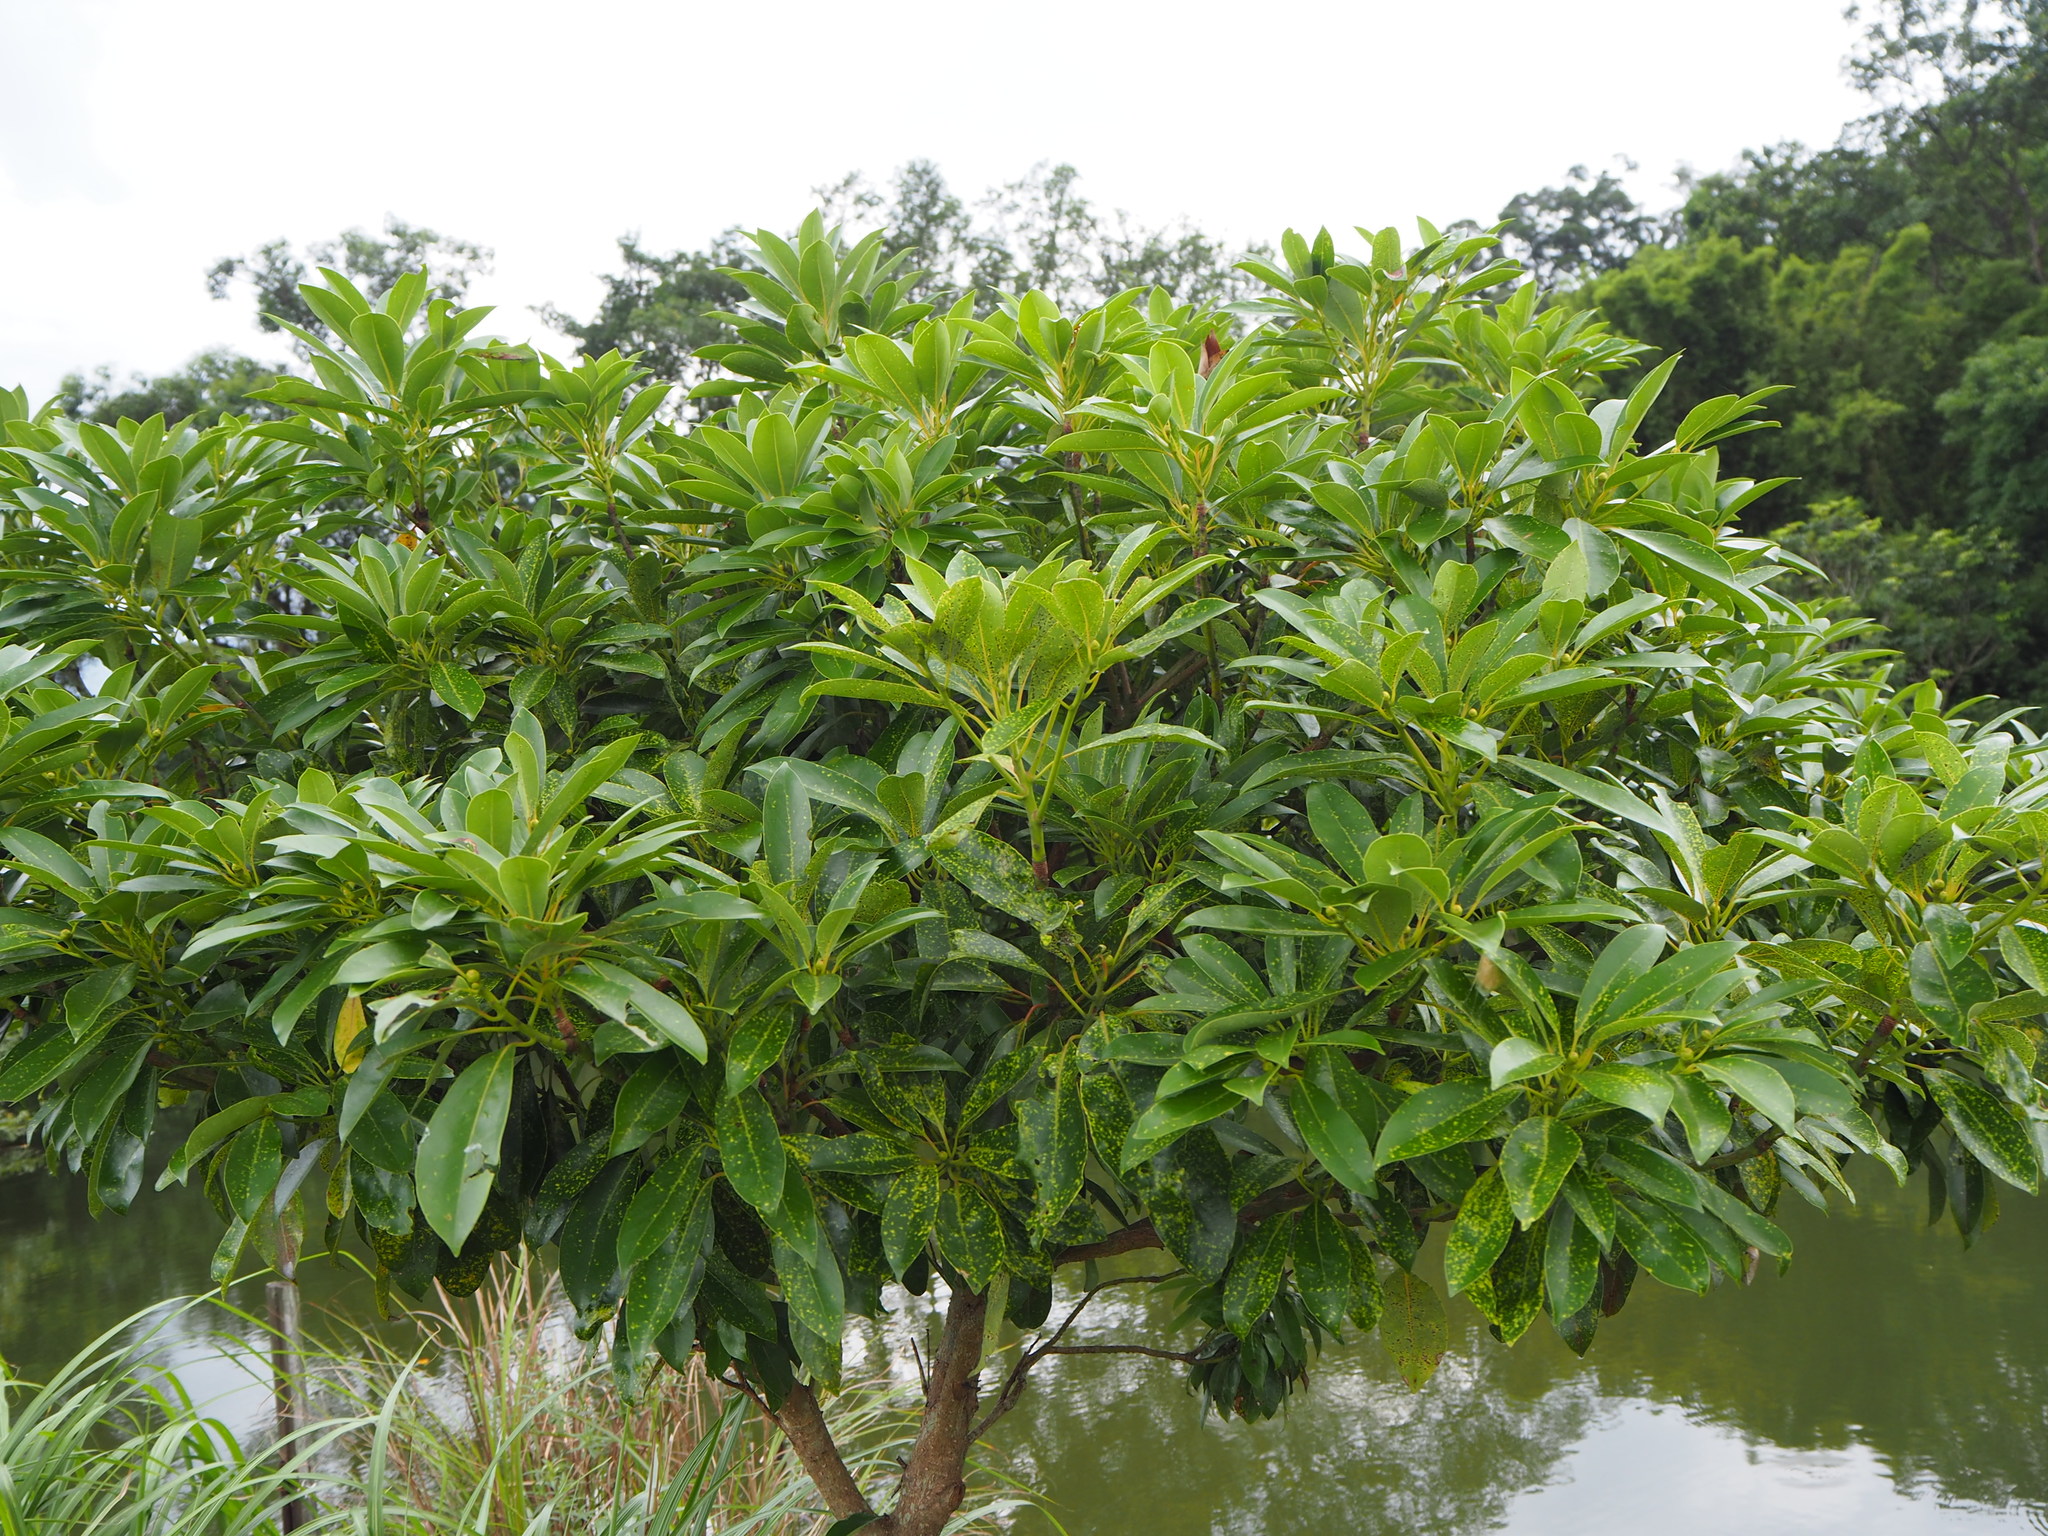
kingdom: Plantae
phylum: Tracheophyta
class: Magnoliopsida
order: Laurales
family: Lauraceae
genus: Machilus
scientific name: Machilus thunbergii
